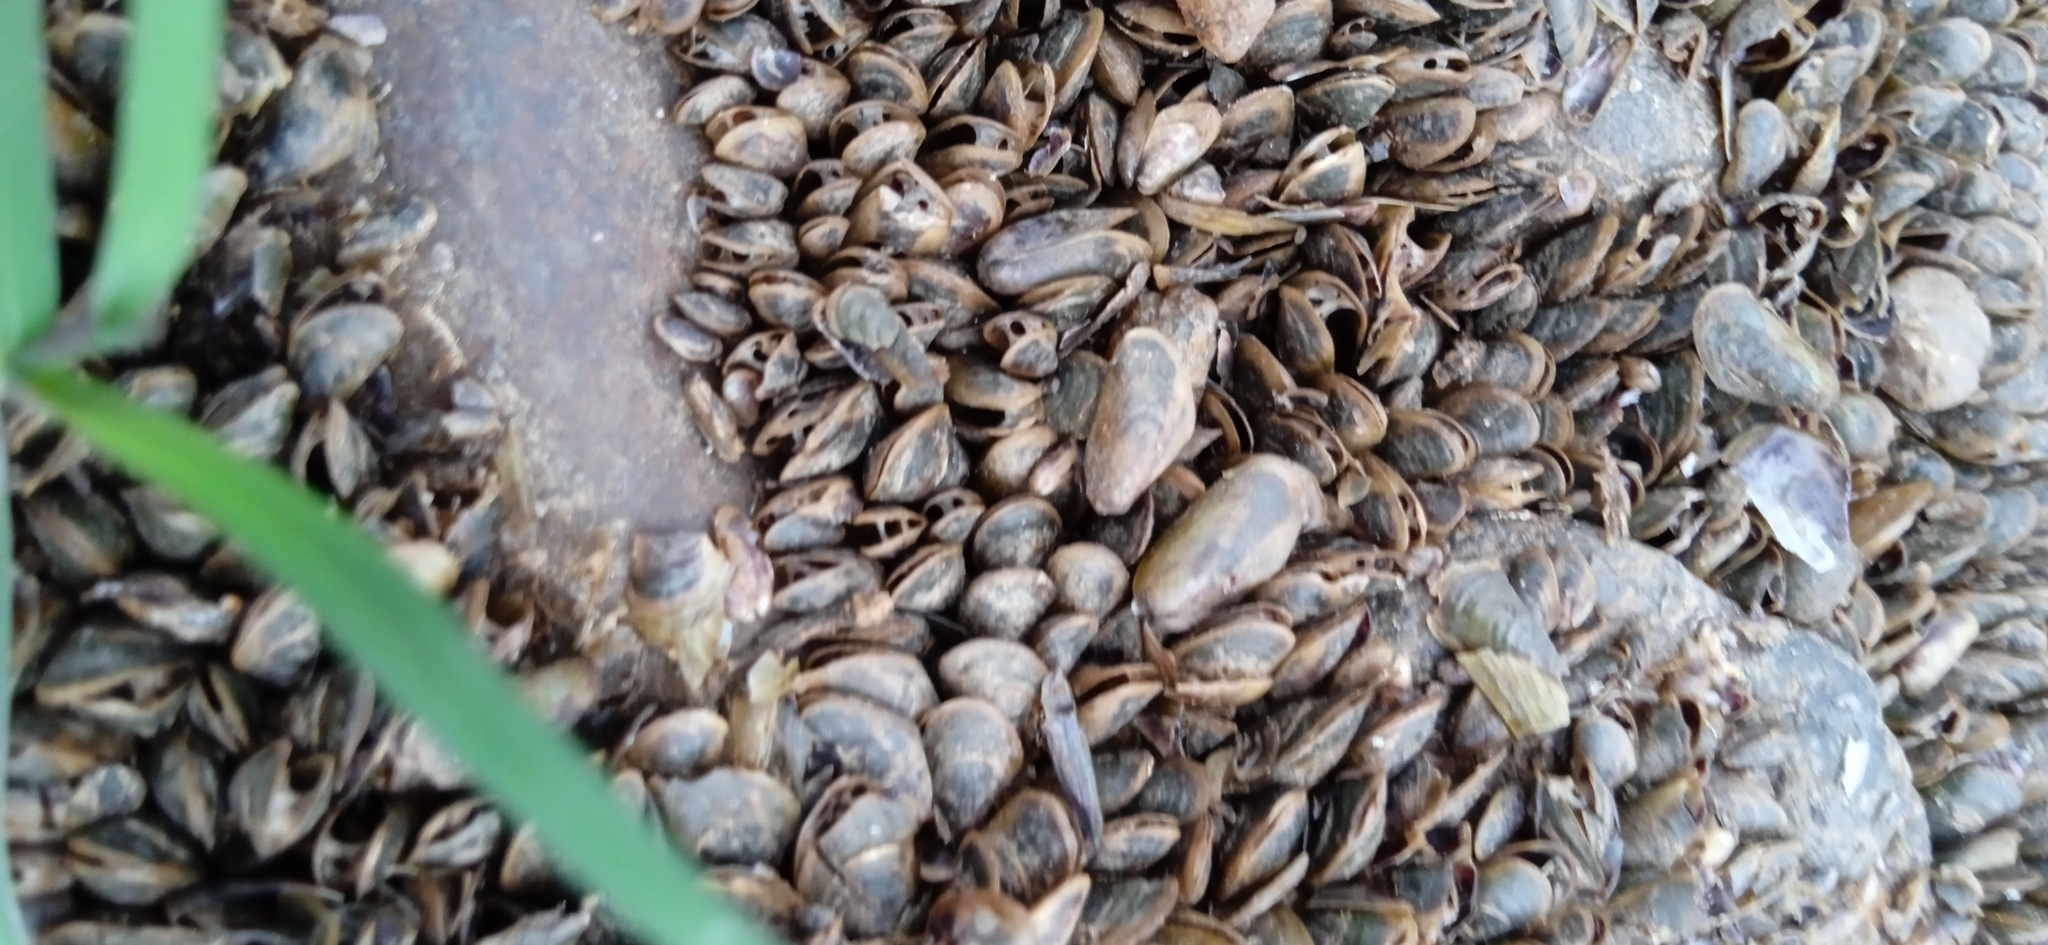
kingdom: Animalia
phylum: Mollusca
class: Bivalvia
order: Mytilida
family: Mytilidae
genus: Limnoperna
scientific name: Limnoperna fortunei
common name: Golden mussel
